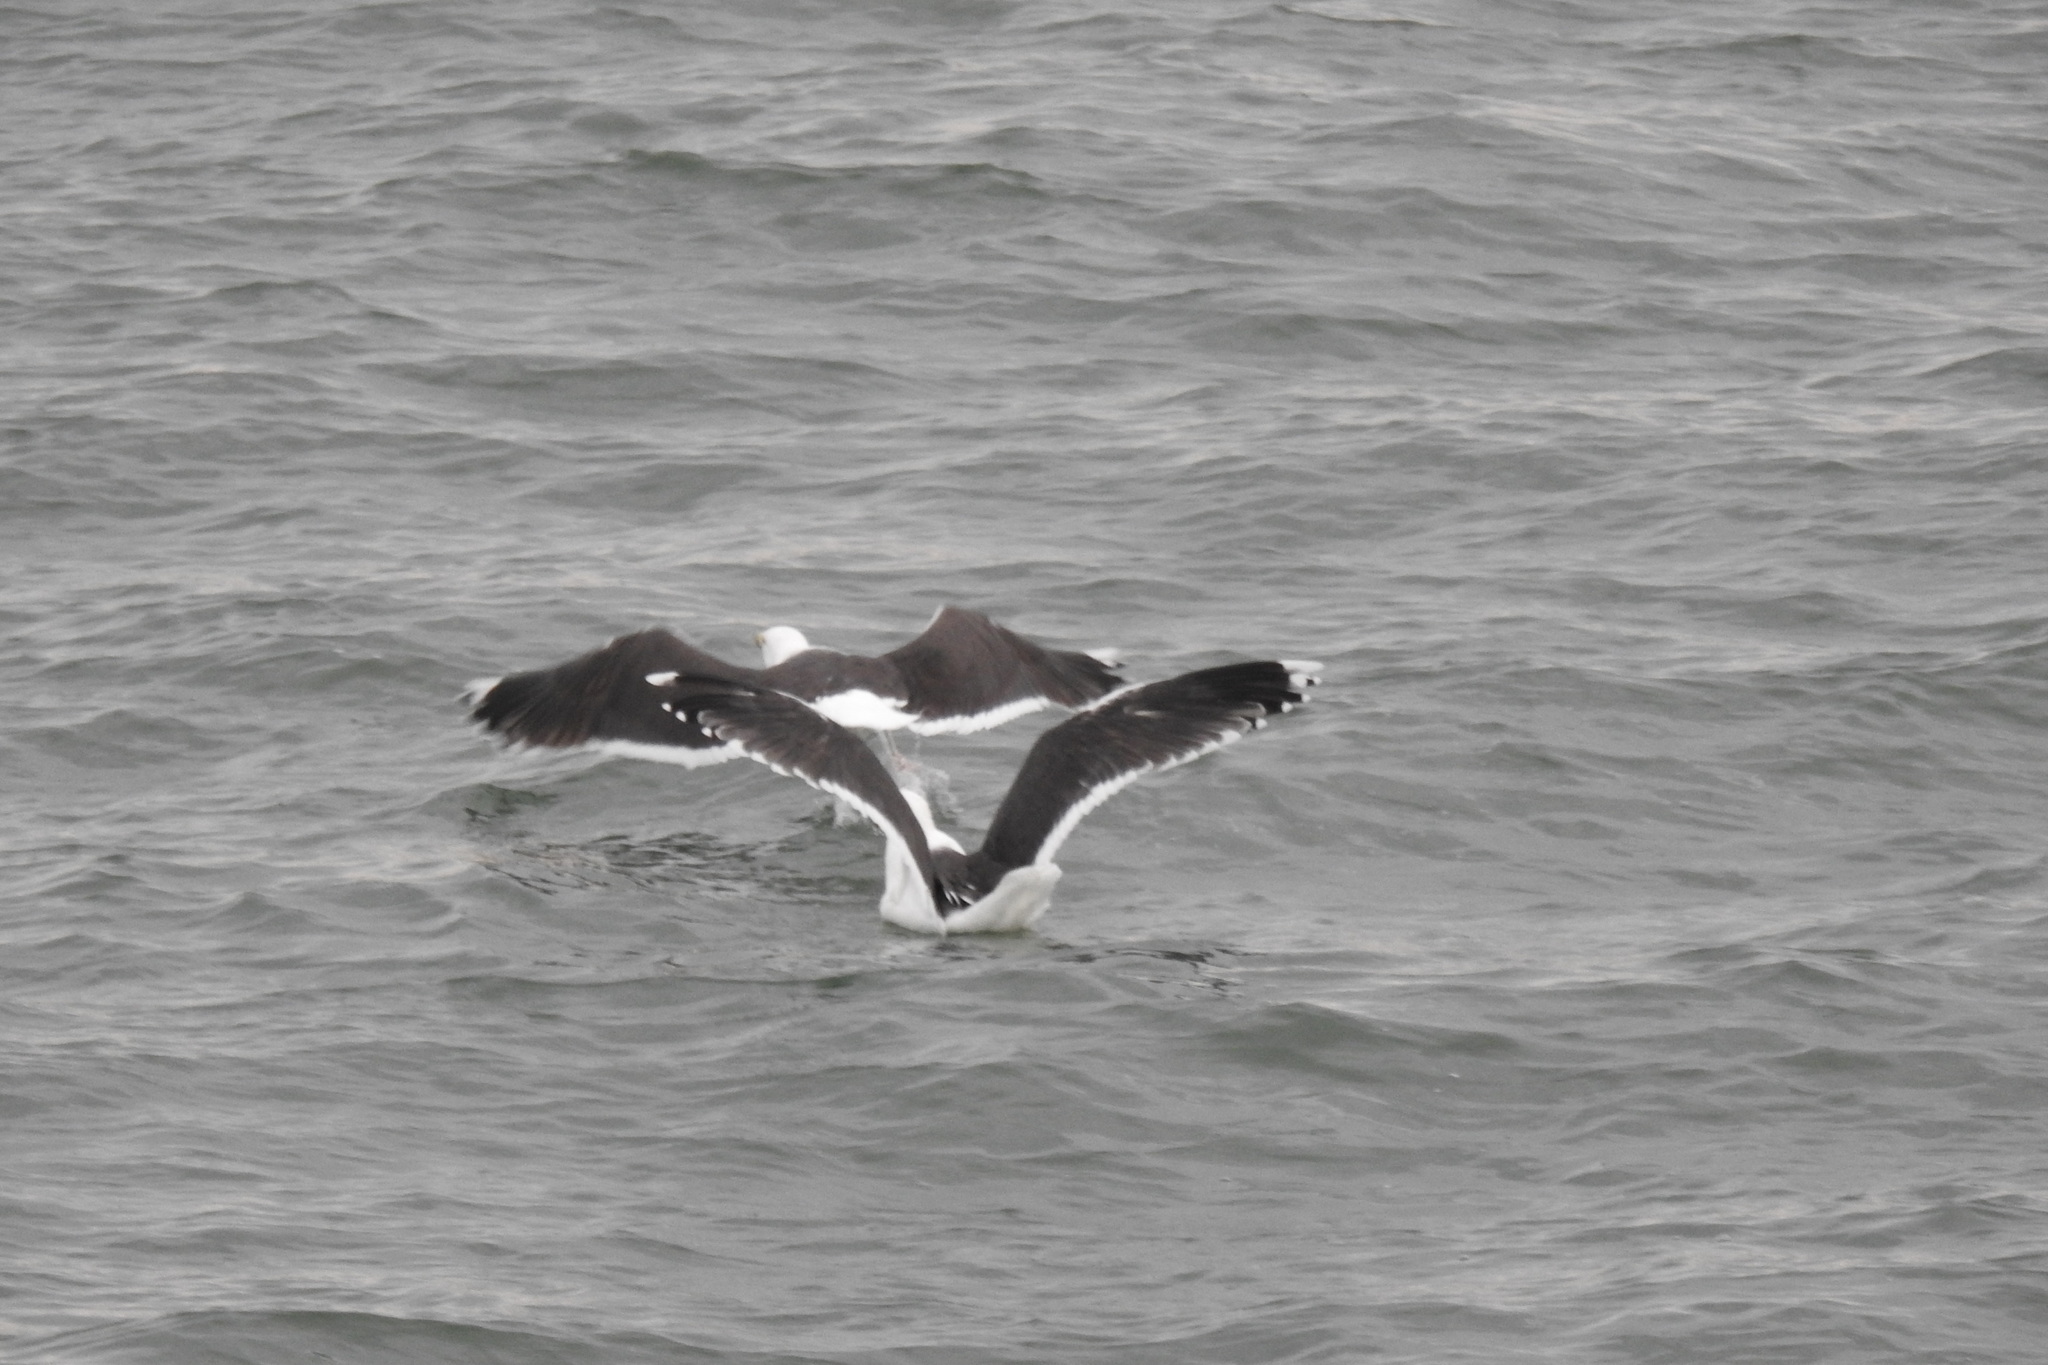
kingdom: Animalia
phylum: Chordata
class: Aves
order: Charadriiformes
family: Laridae
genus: Larus
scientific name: Larus marinus
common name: Great black-backed gull
